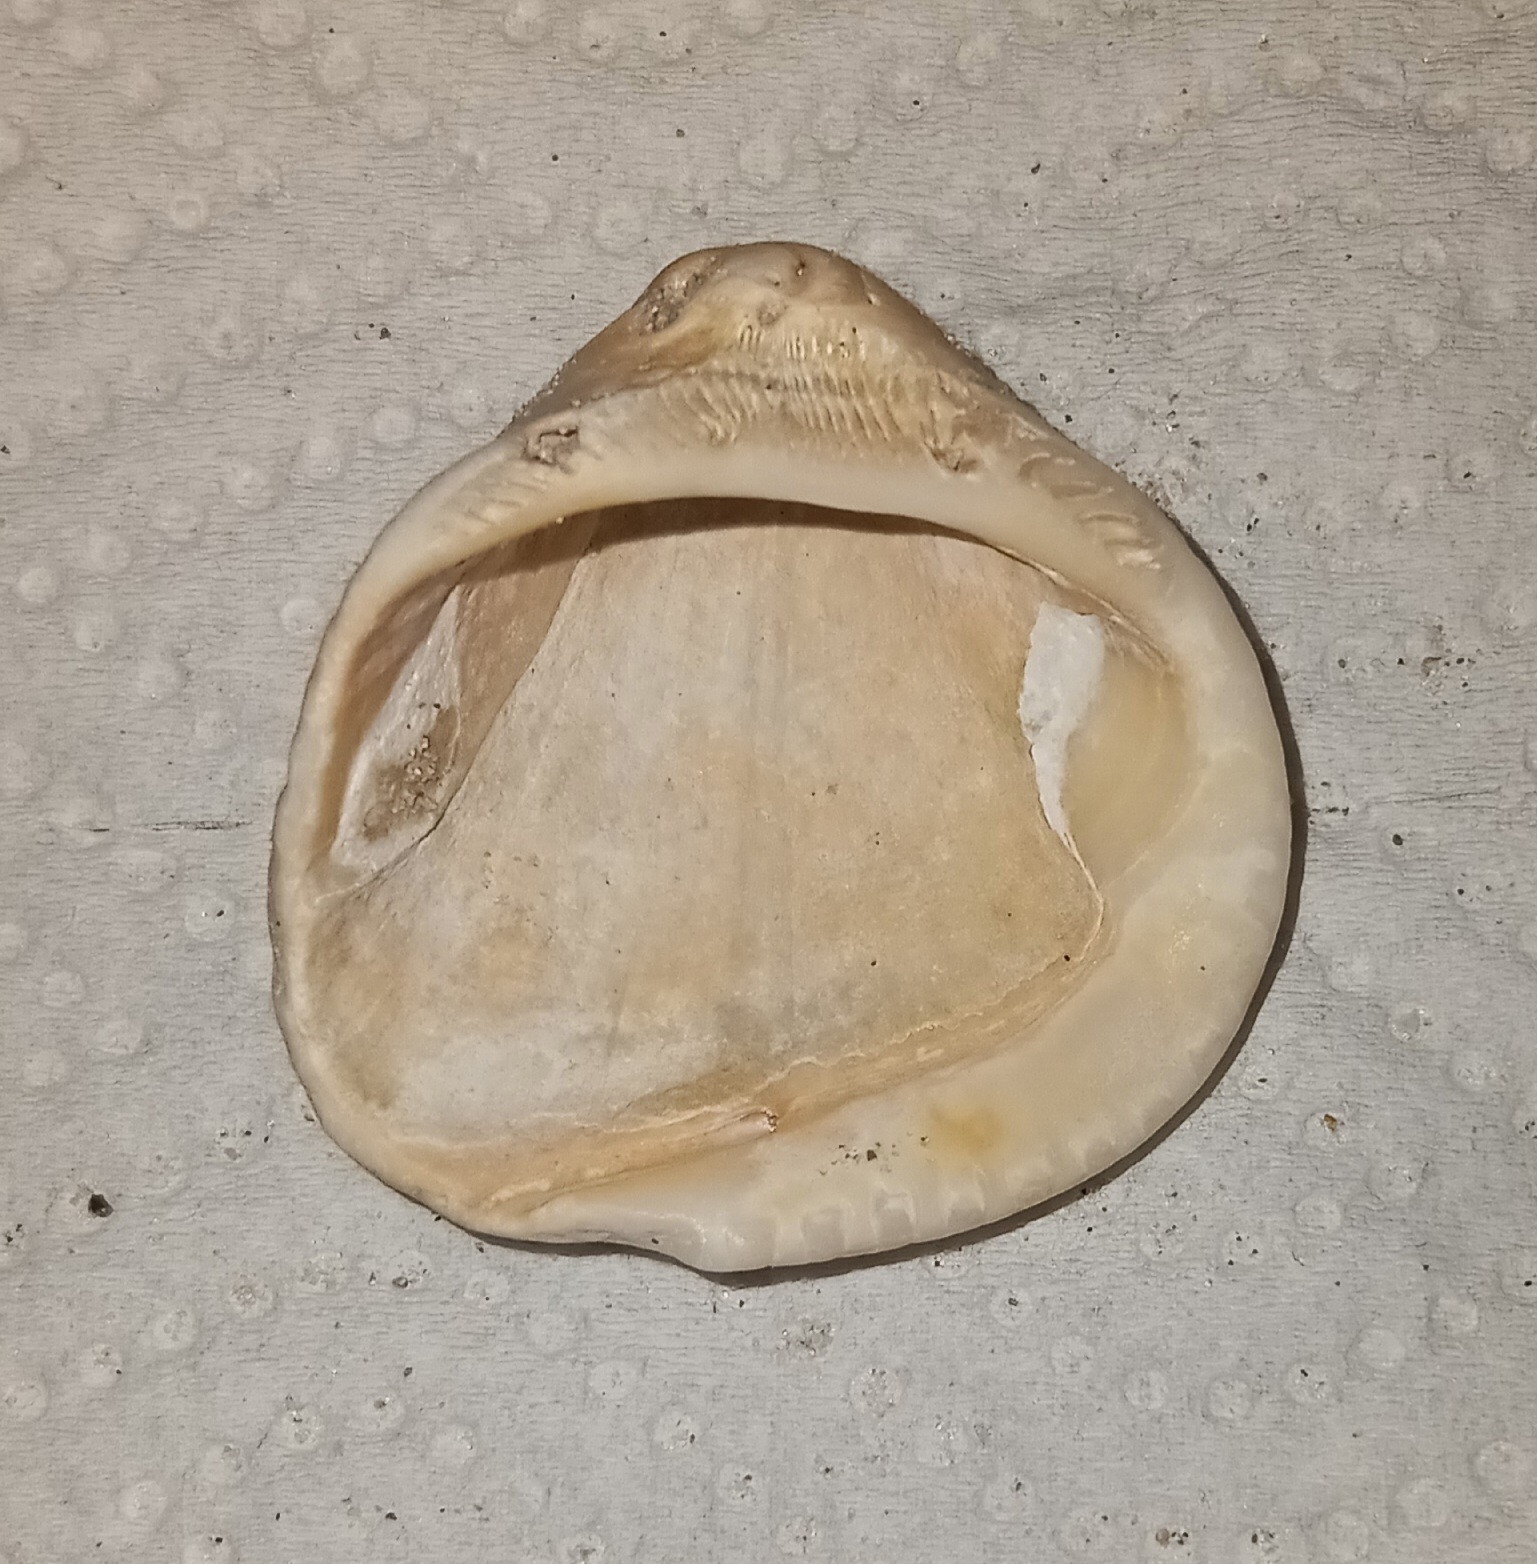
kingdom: Animalia
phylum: Mollusca
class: Bivalvia
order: Arcida
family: Noetiidae
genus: Noetia
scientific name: Noetia ponderosa
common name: Ponderous ark
